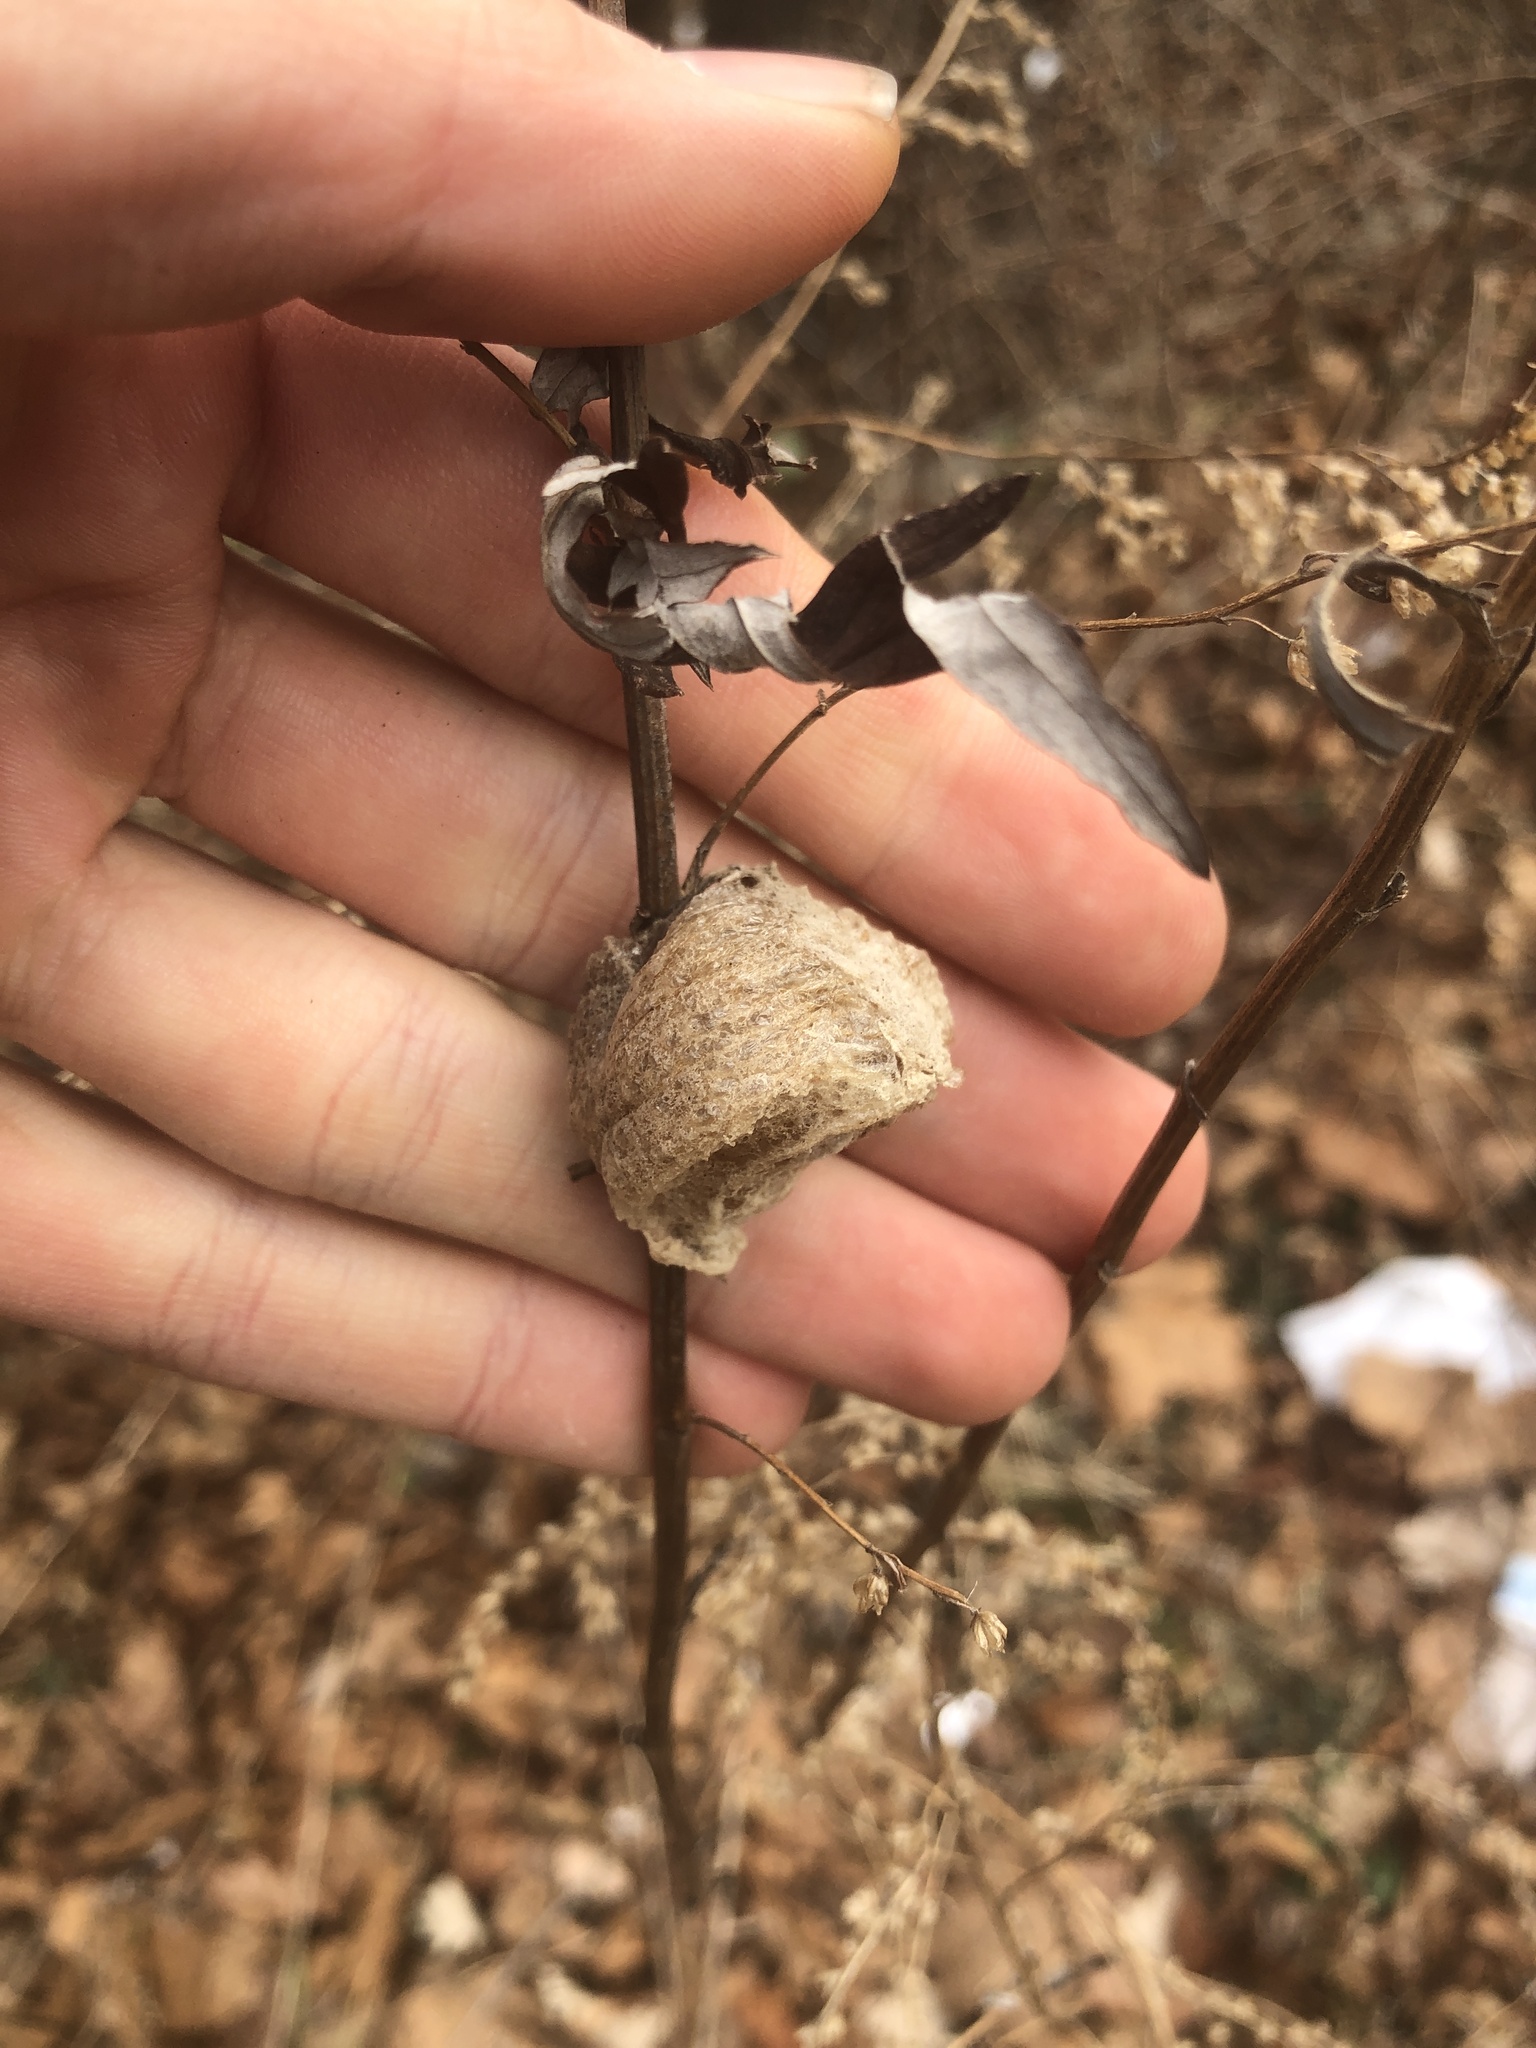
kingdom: Animalia
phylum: Arthropoda
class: Insecta
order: Mantodea
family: Mantidae
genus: Tenodera
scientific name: Tenodera sinensis
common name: Chinese mantis
